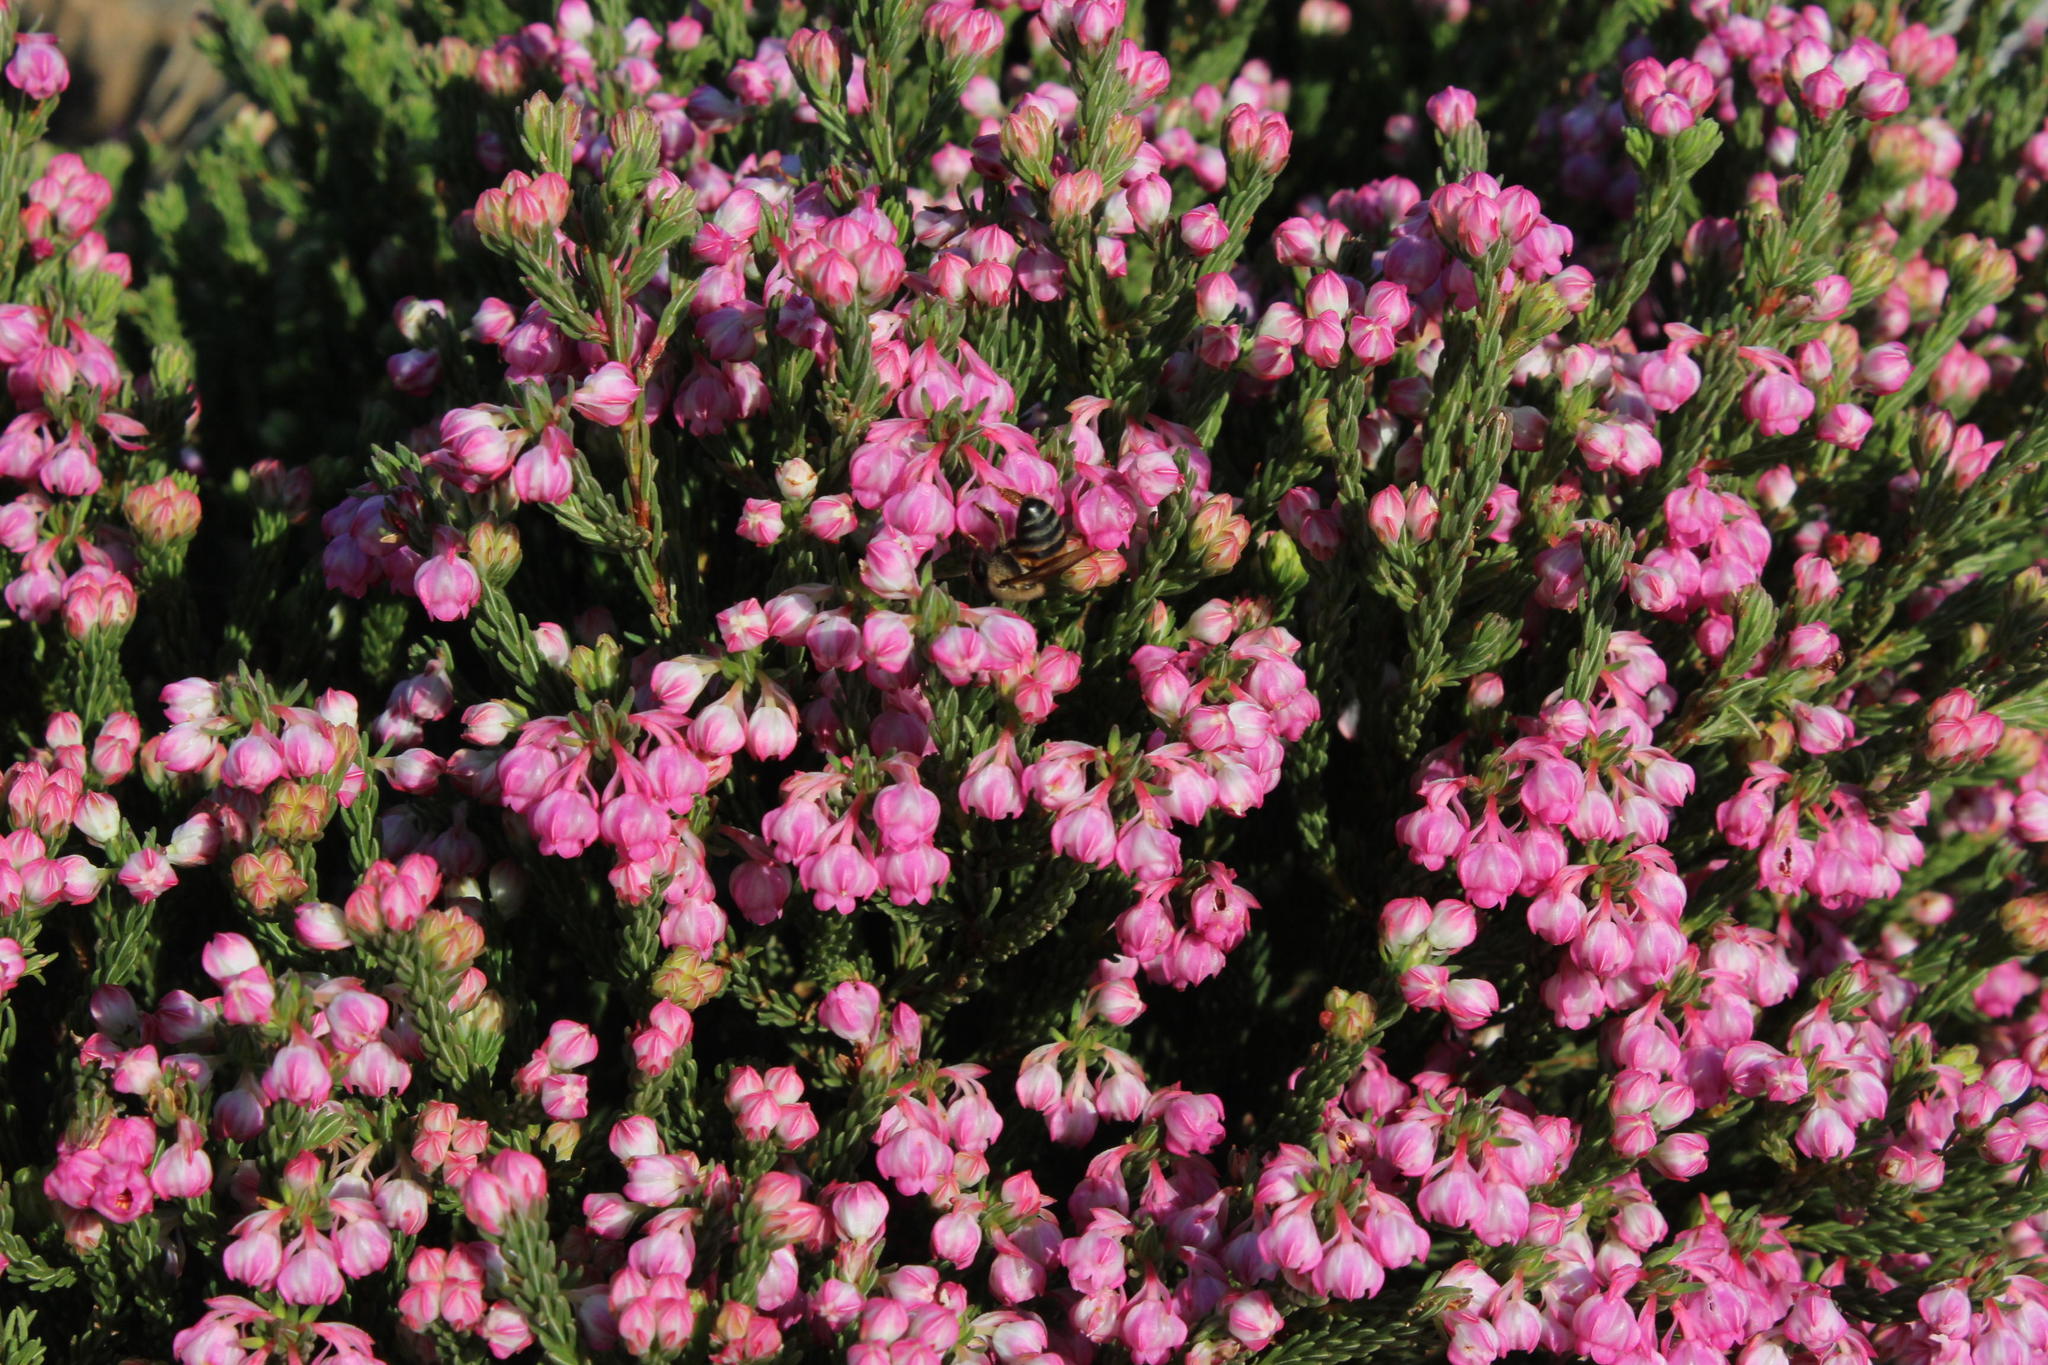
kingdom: Plantae
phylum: Tracheophyta
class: Magnoliopsida
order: Ericales
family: Ericaceae
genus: Erica
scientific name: Erica baccans
